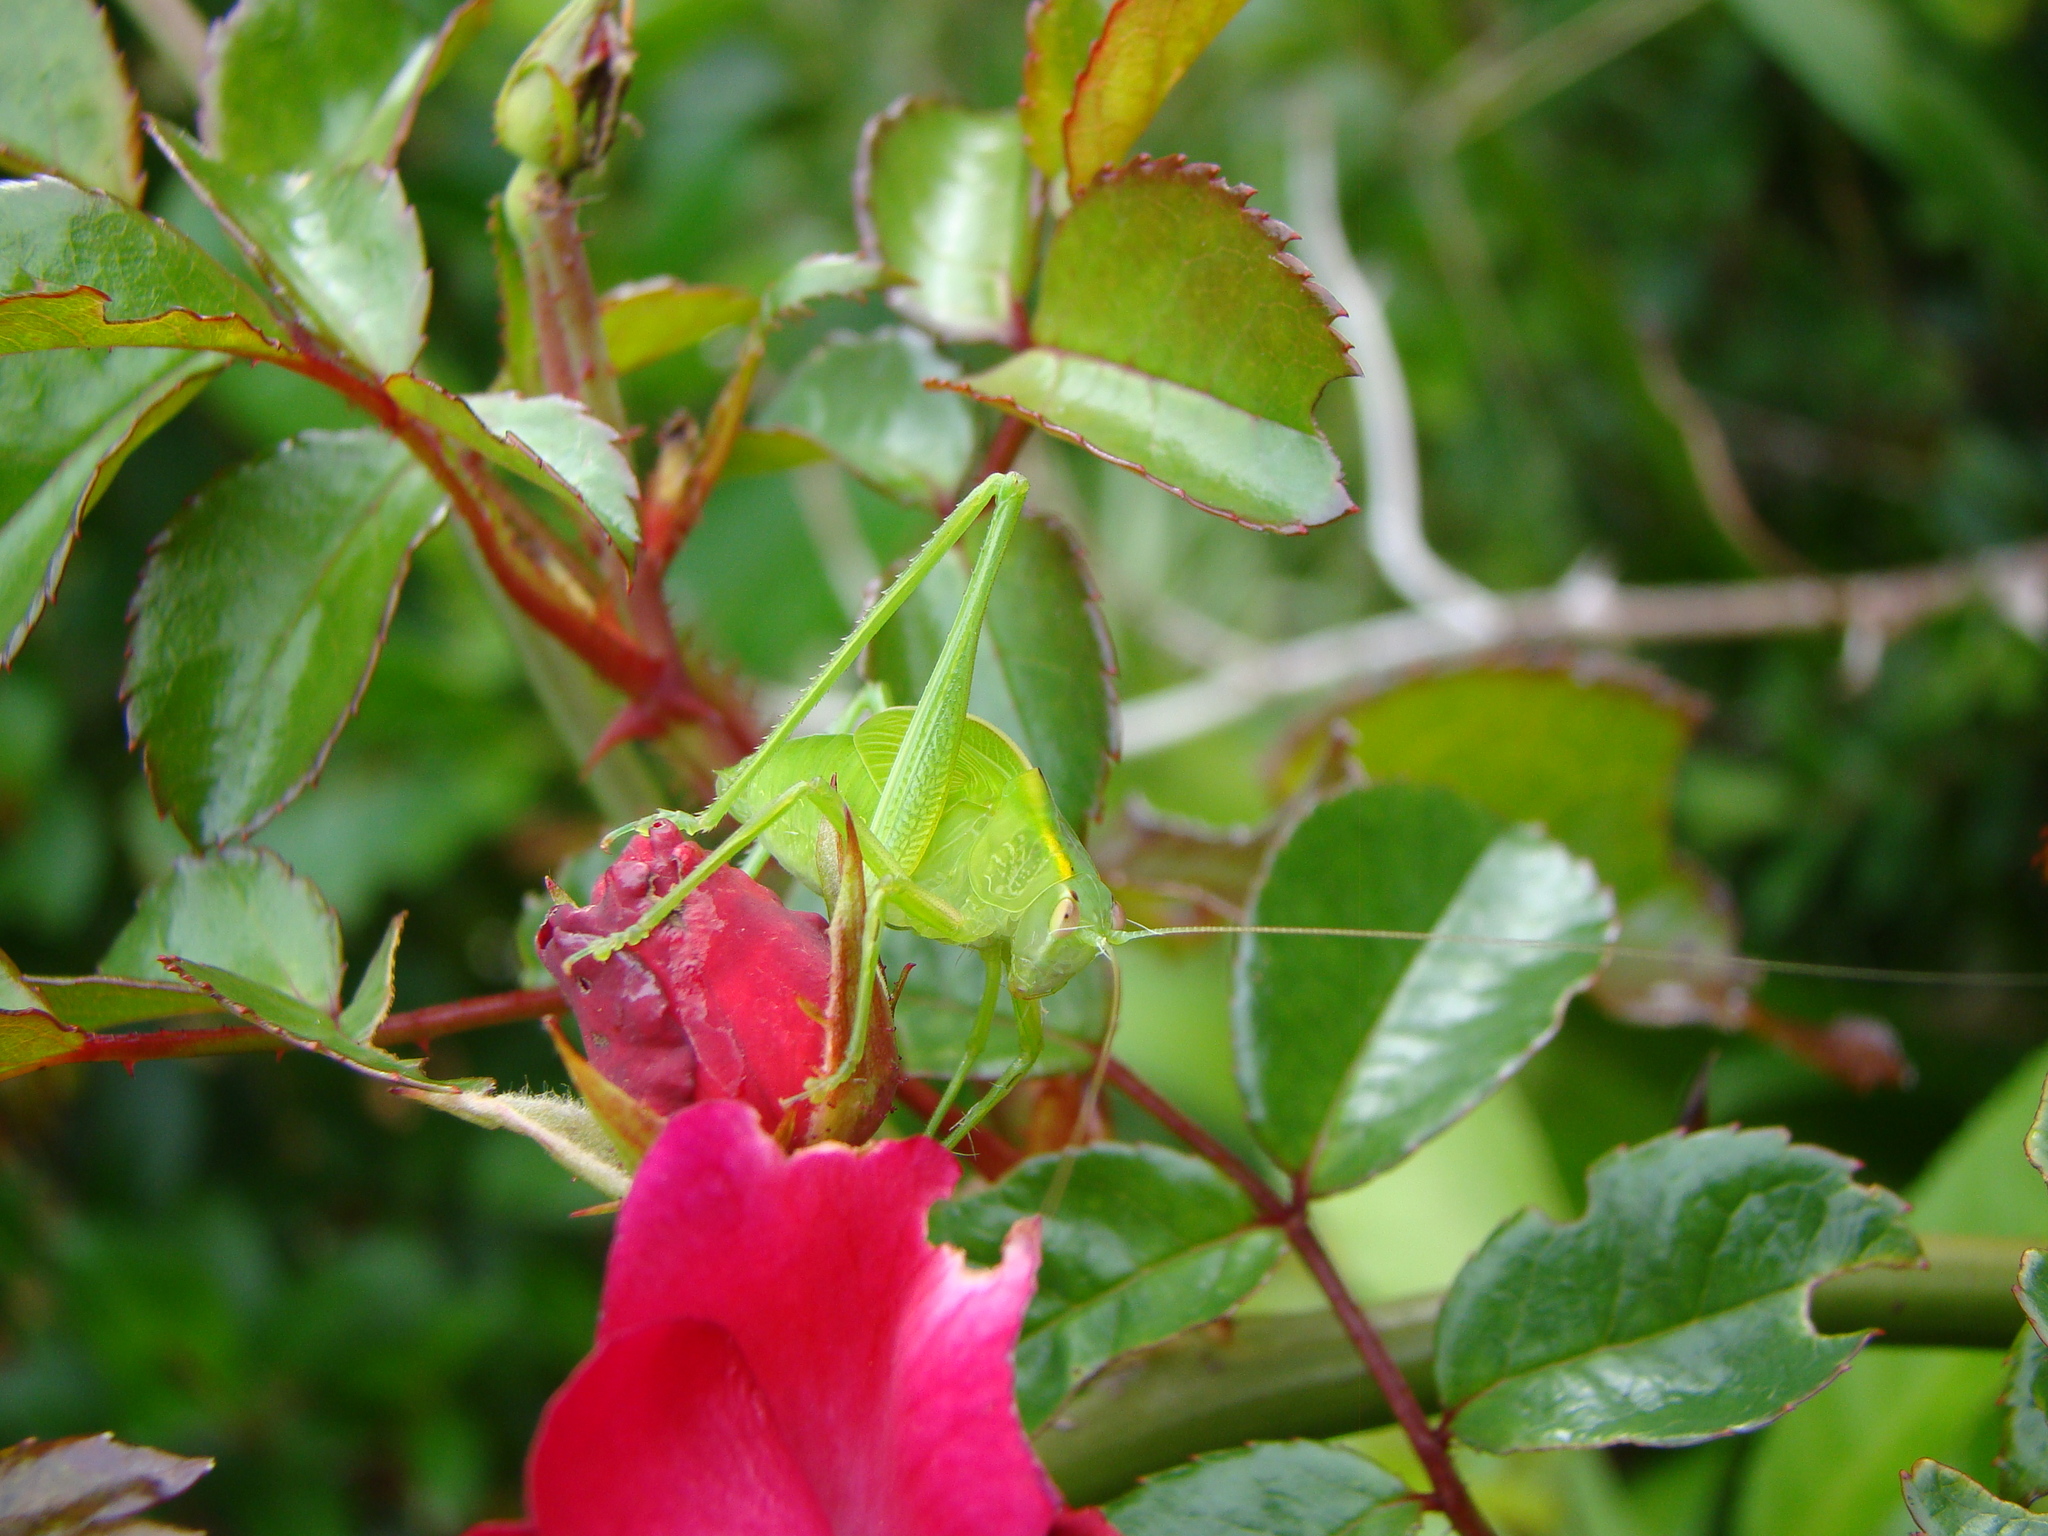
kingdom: Animalia
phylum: Arthropoda
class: Insecta
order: Orthoptera
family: Tettigoniidae
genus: Caedicia
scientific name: Caedicia simplex
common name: Common garden katydid
